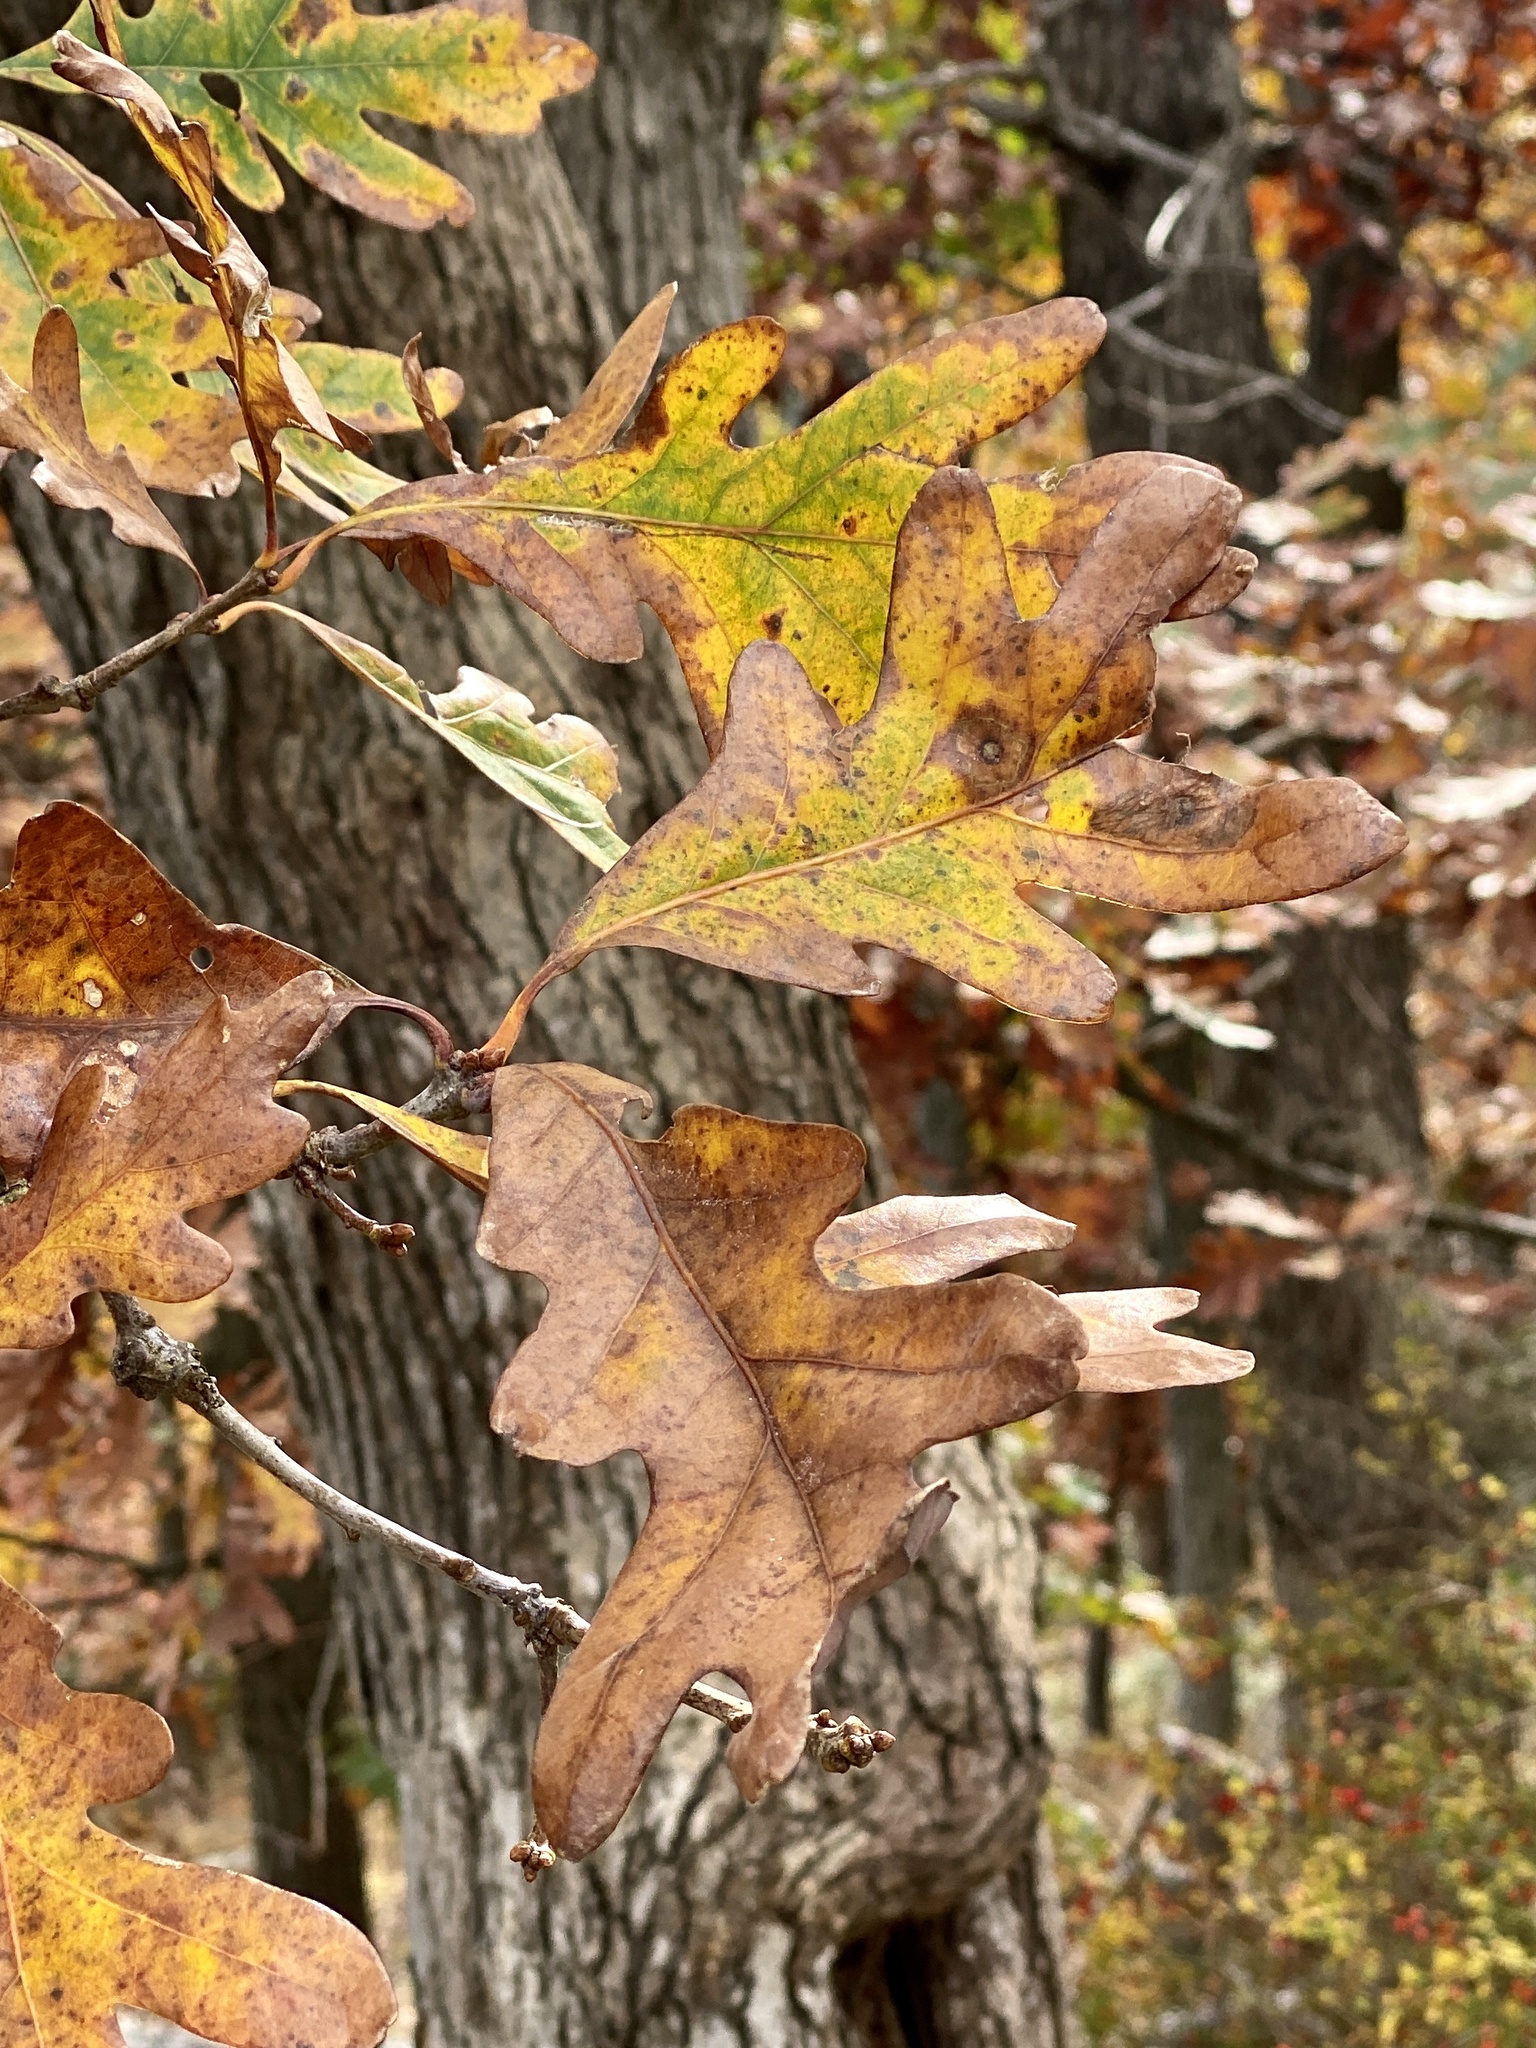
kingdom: Plantae
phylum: Tracheophyta
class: Magnoliopsida
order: Fagales
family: Fagaceae
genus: Quercus
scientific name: Quercus alba
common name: White oak
